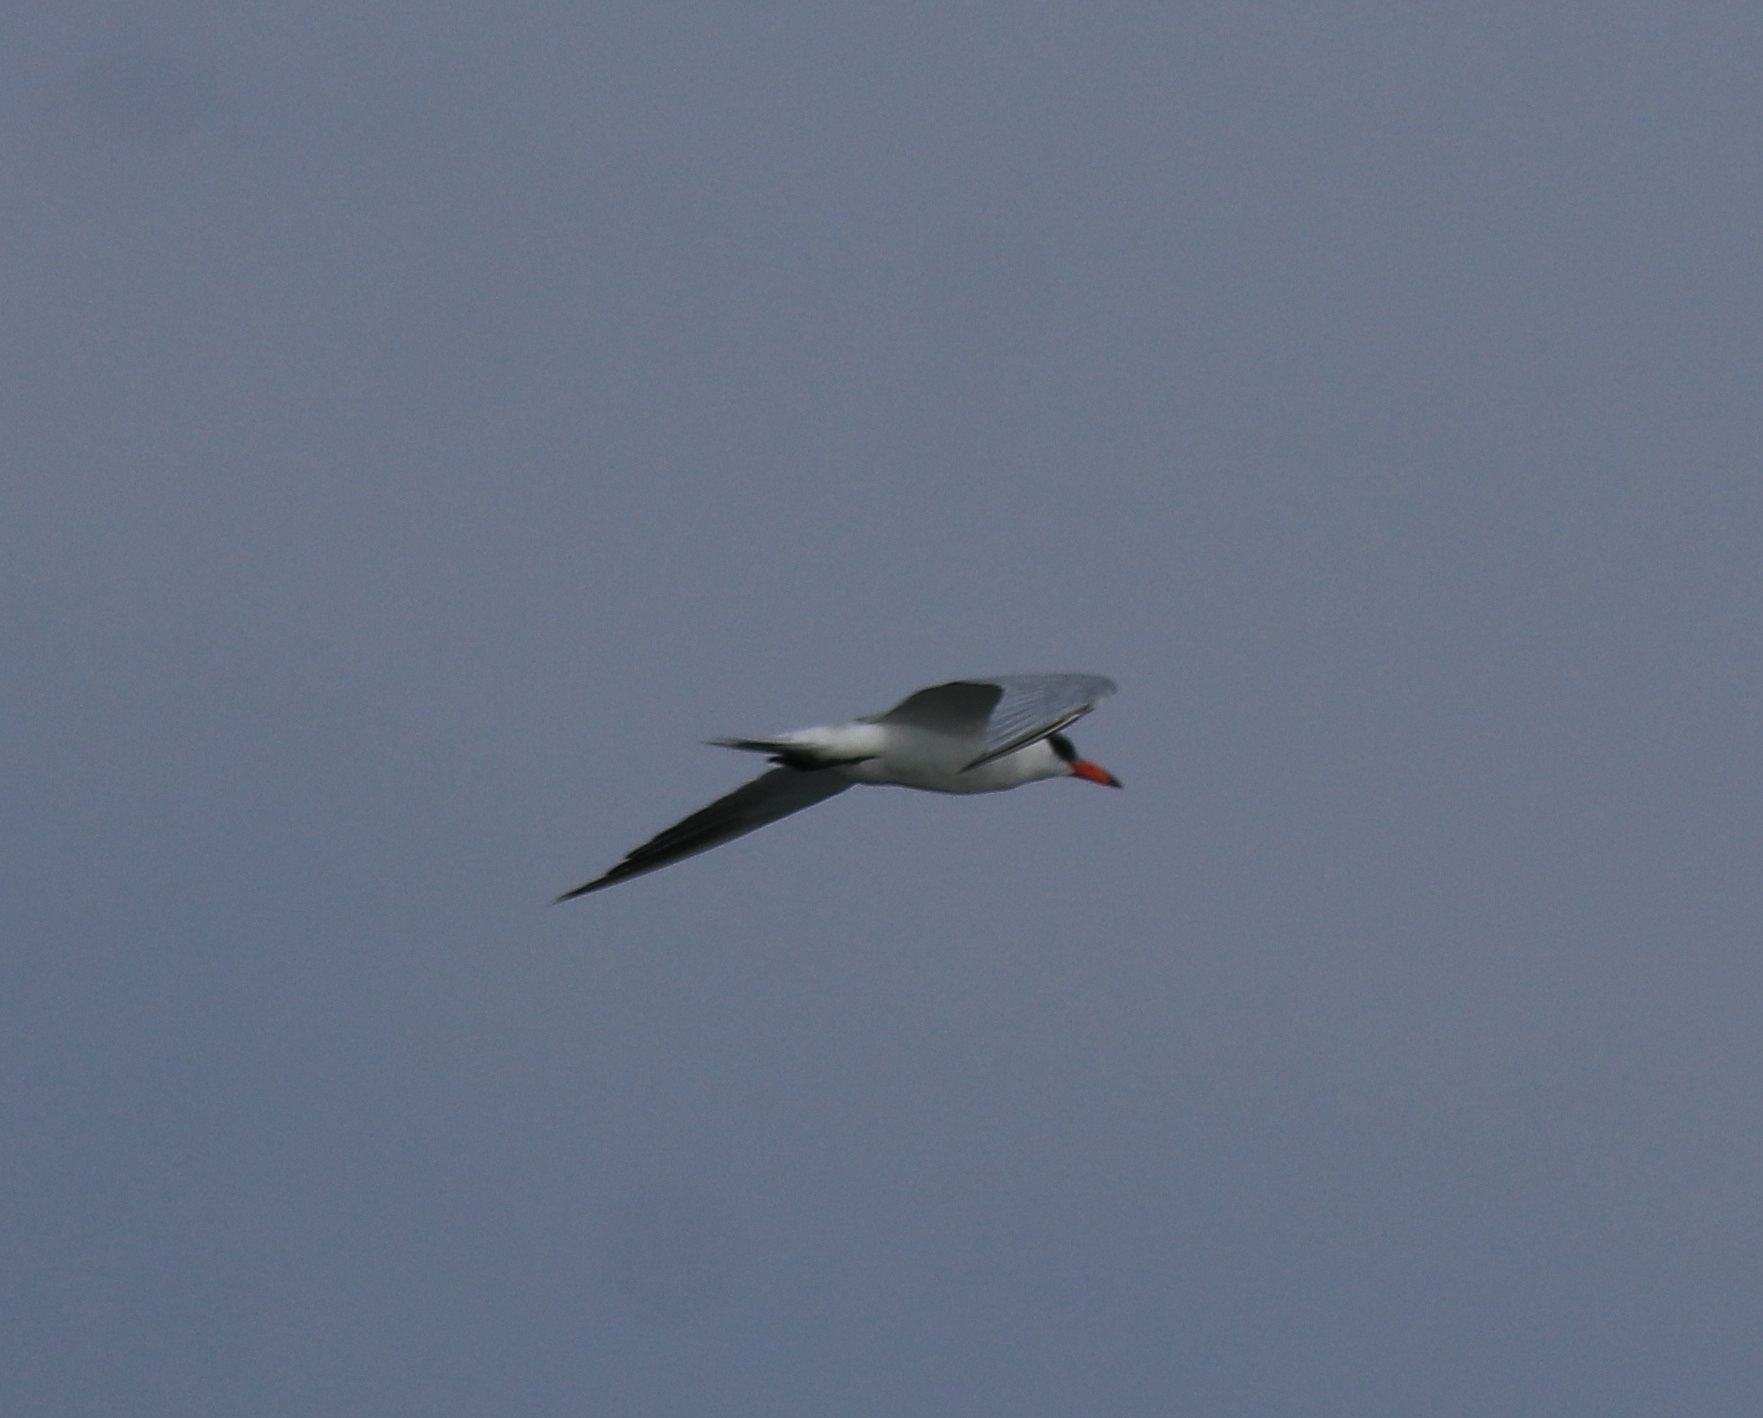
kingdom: Animalia
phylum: Chordata
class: Aves
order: Charadriiformes
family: Laridae
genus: Hydroprogne
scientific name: Hydroprogne caspia
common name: Caspian tern
